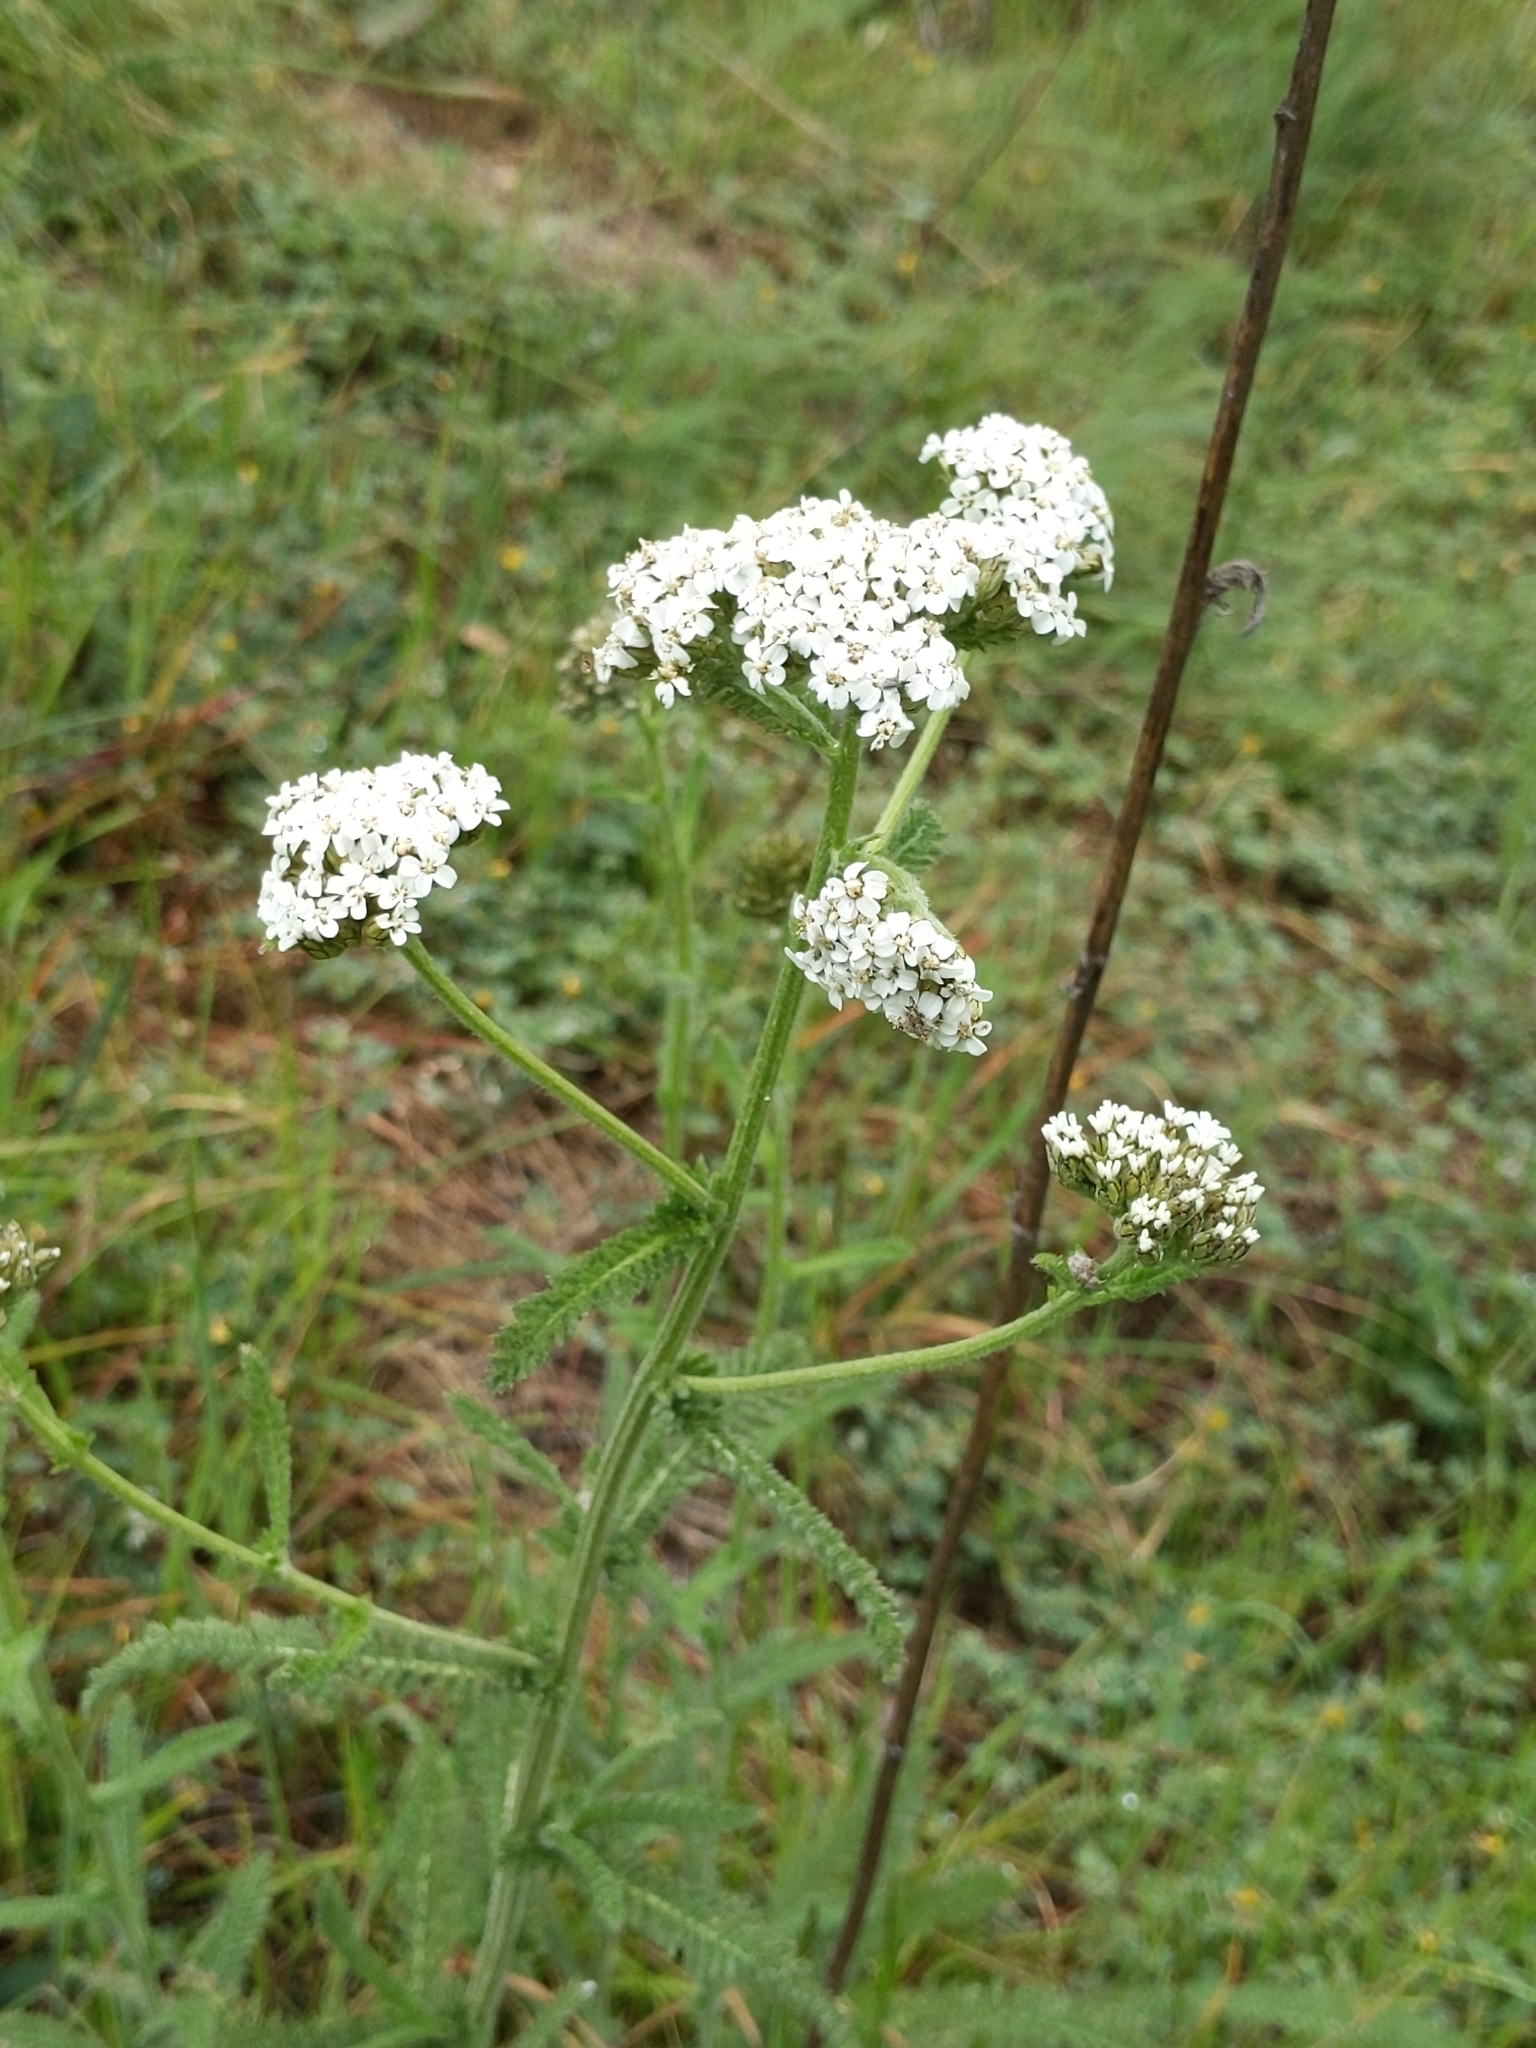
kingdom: Plantae
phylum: Tracheophyta
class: Magnoliopsida
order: Asterales
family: Asteraceae
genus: Achillea
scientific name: Achillea millefolium
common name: Yarrow
